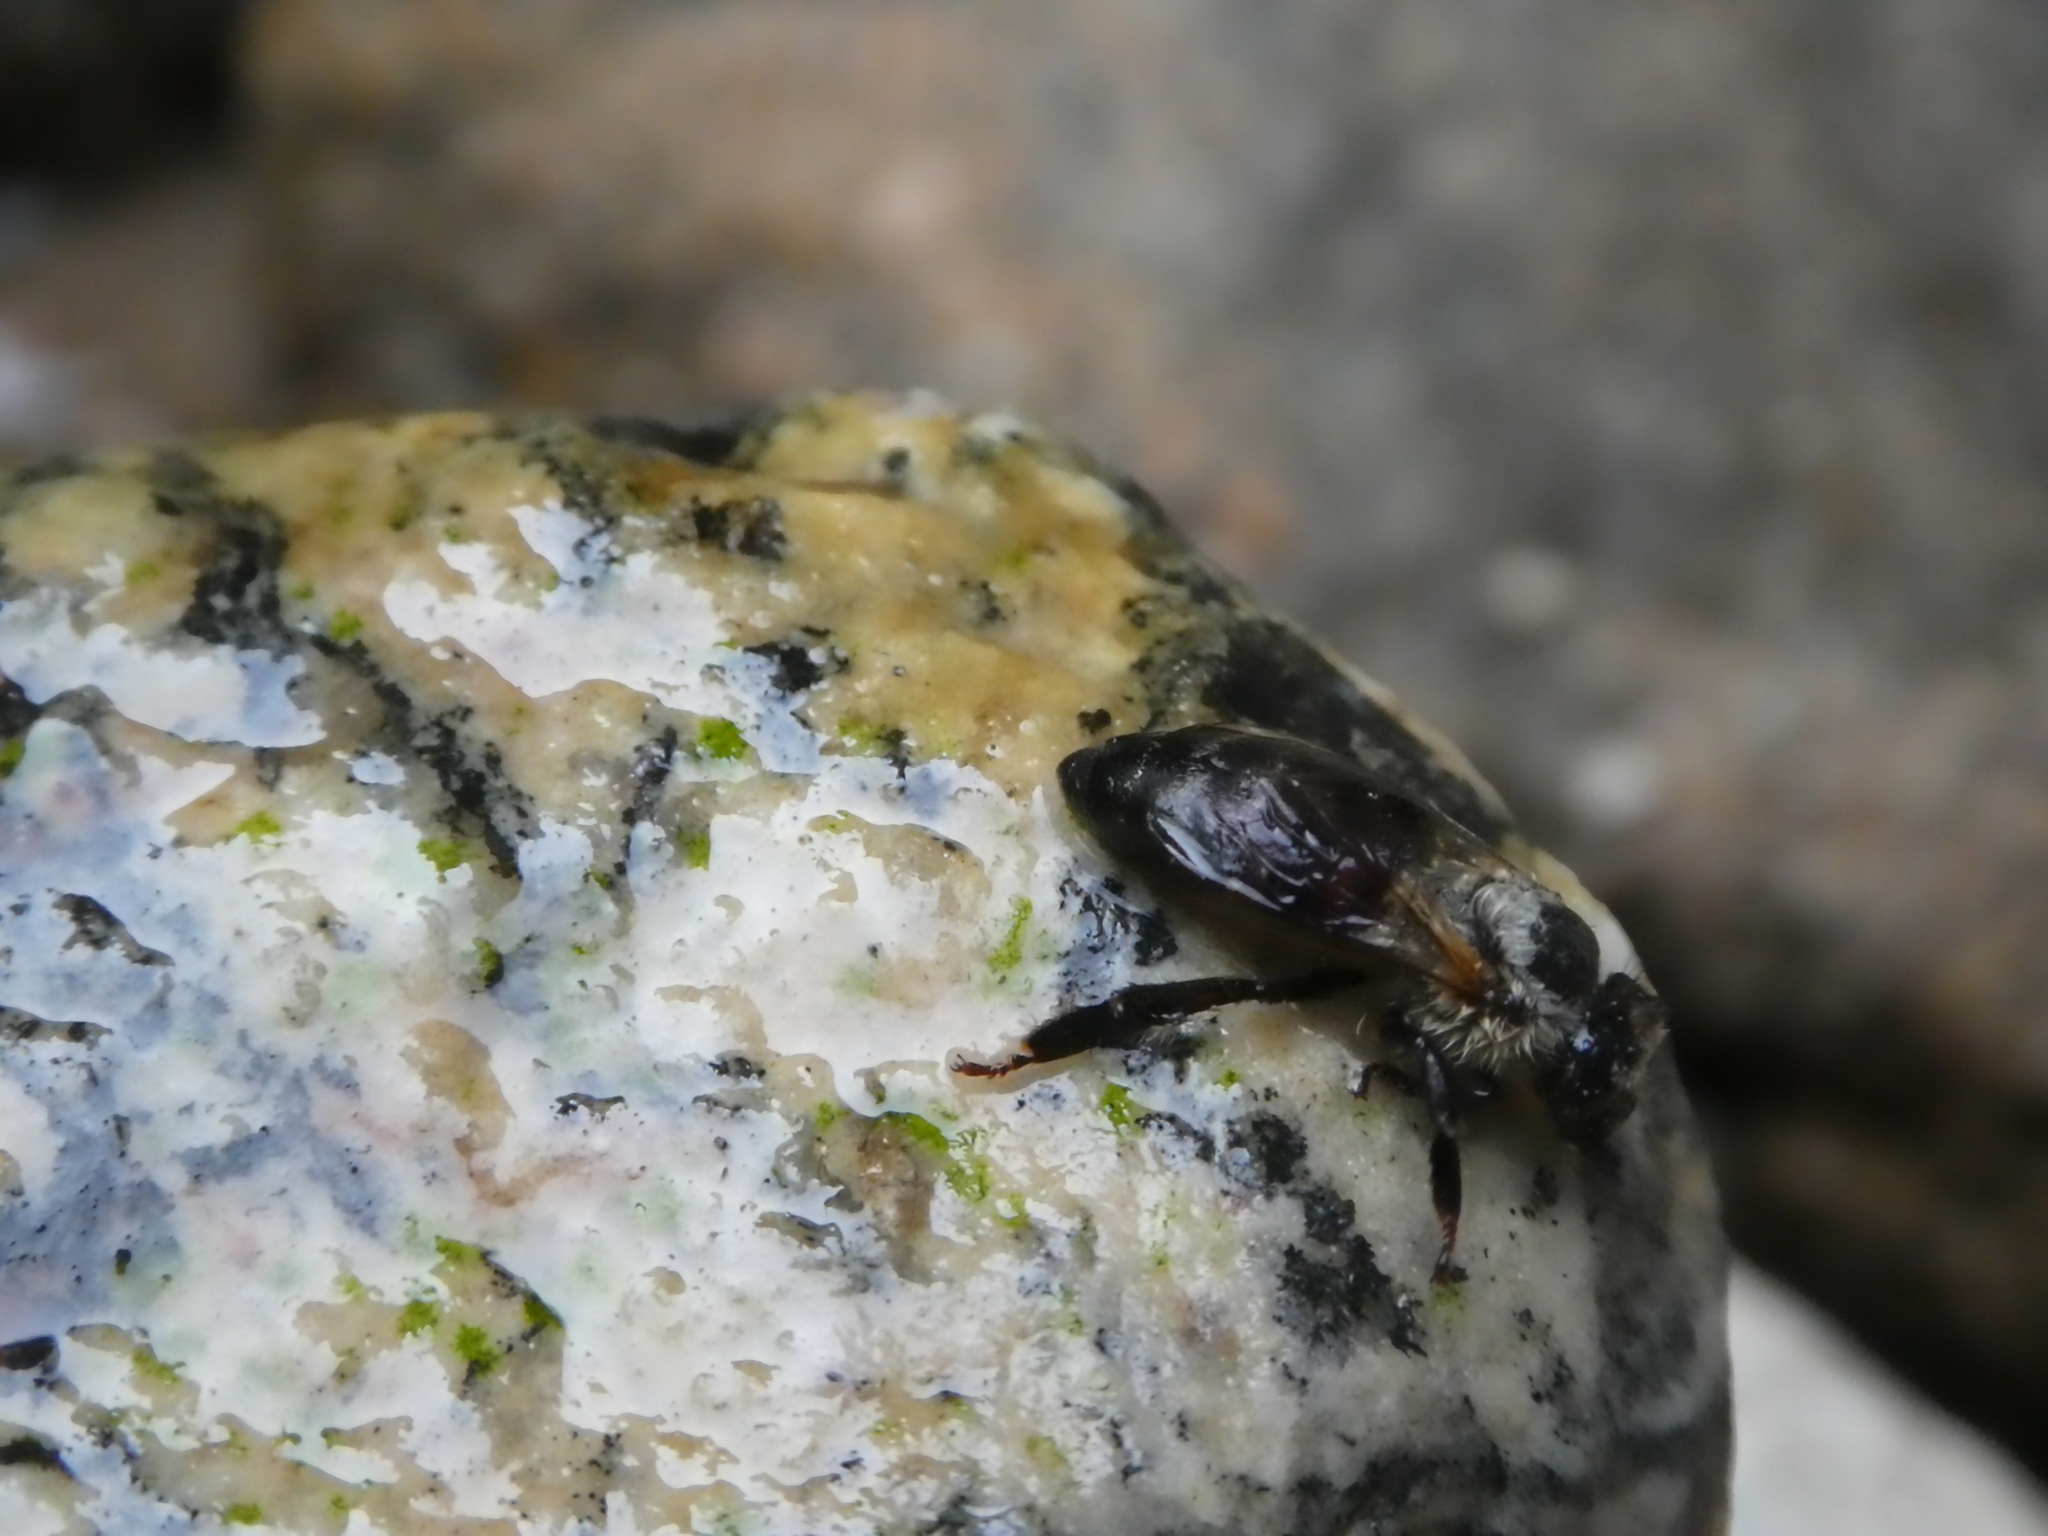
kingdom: Animalia
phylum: Arthropoda
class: Insecta
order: Hymenoptera
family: Apidae
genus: Apis
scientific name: Apis mellifera
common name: Honey bee
